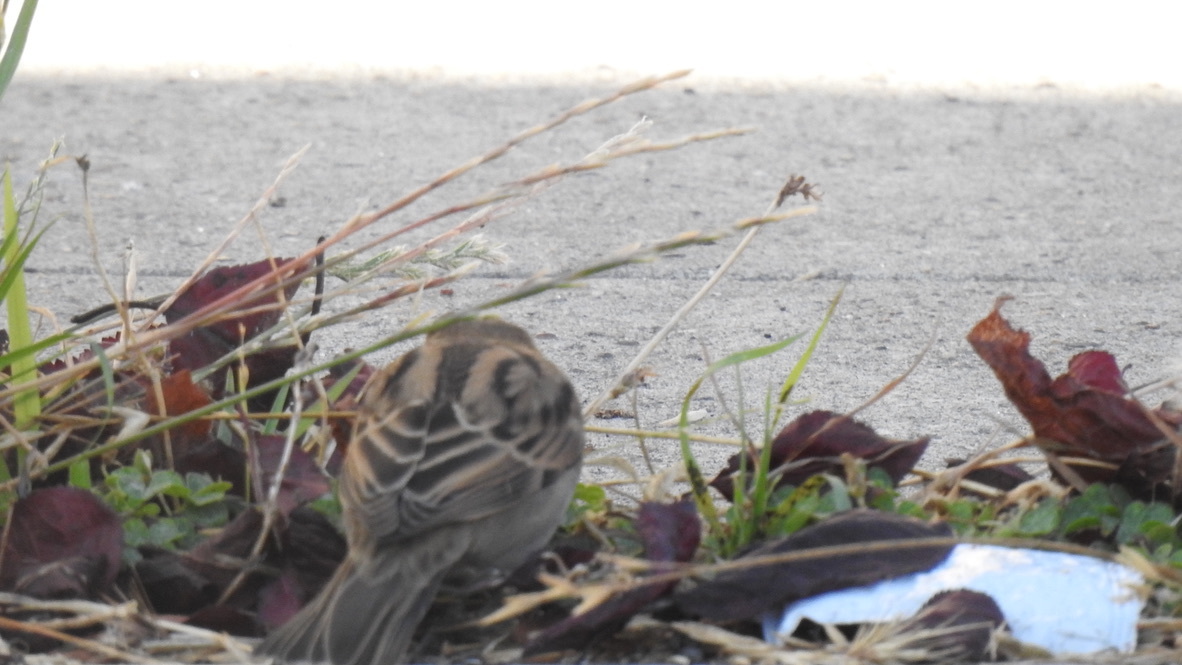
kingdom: Animalia
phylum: Chordata
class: Aves
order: Passeriformes
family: Passeridae
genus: Passer
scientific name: Passer domesticus
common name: House sparrow
